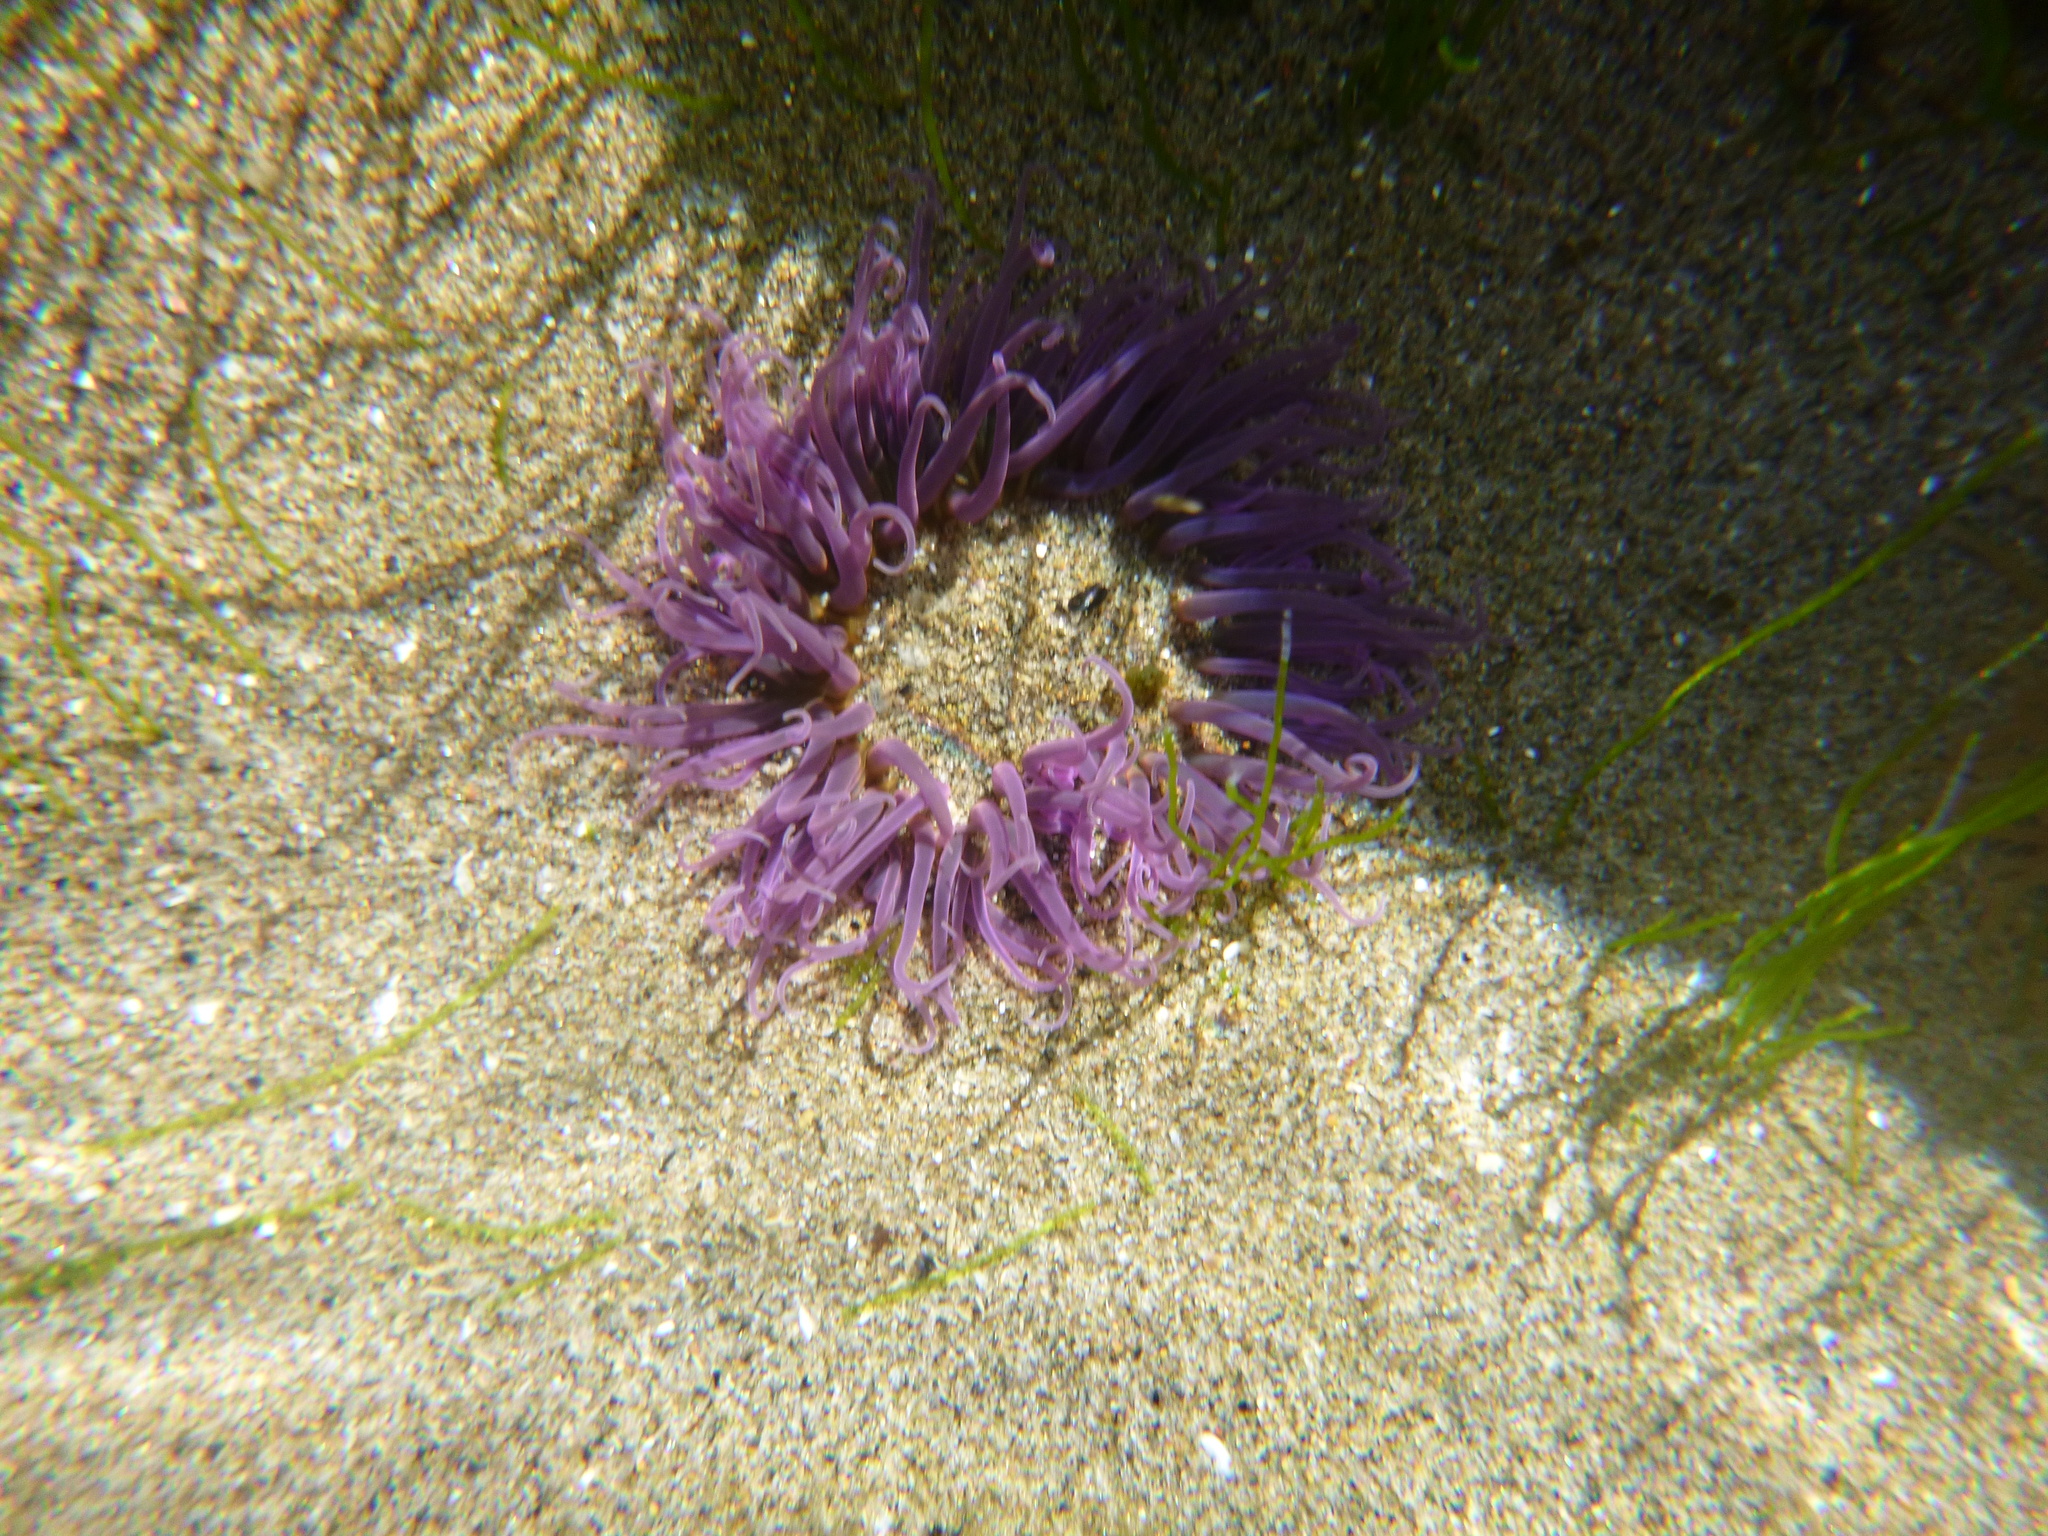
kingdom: Animalia
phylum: Cnidaria
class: Anthozoa
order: Actiniaria
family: Actiniidae
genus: Oulactis
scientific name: Oulactis magna
